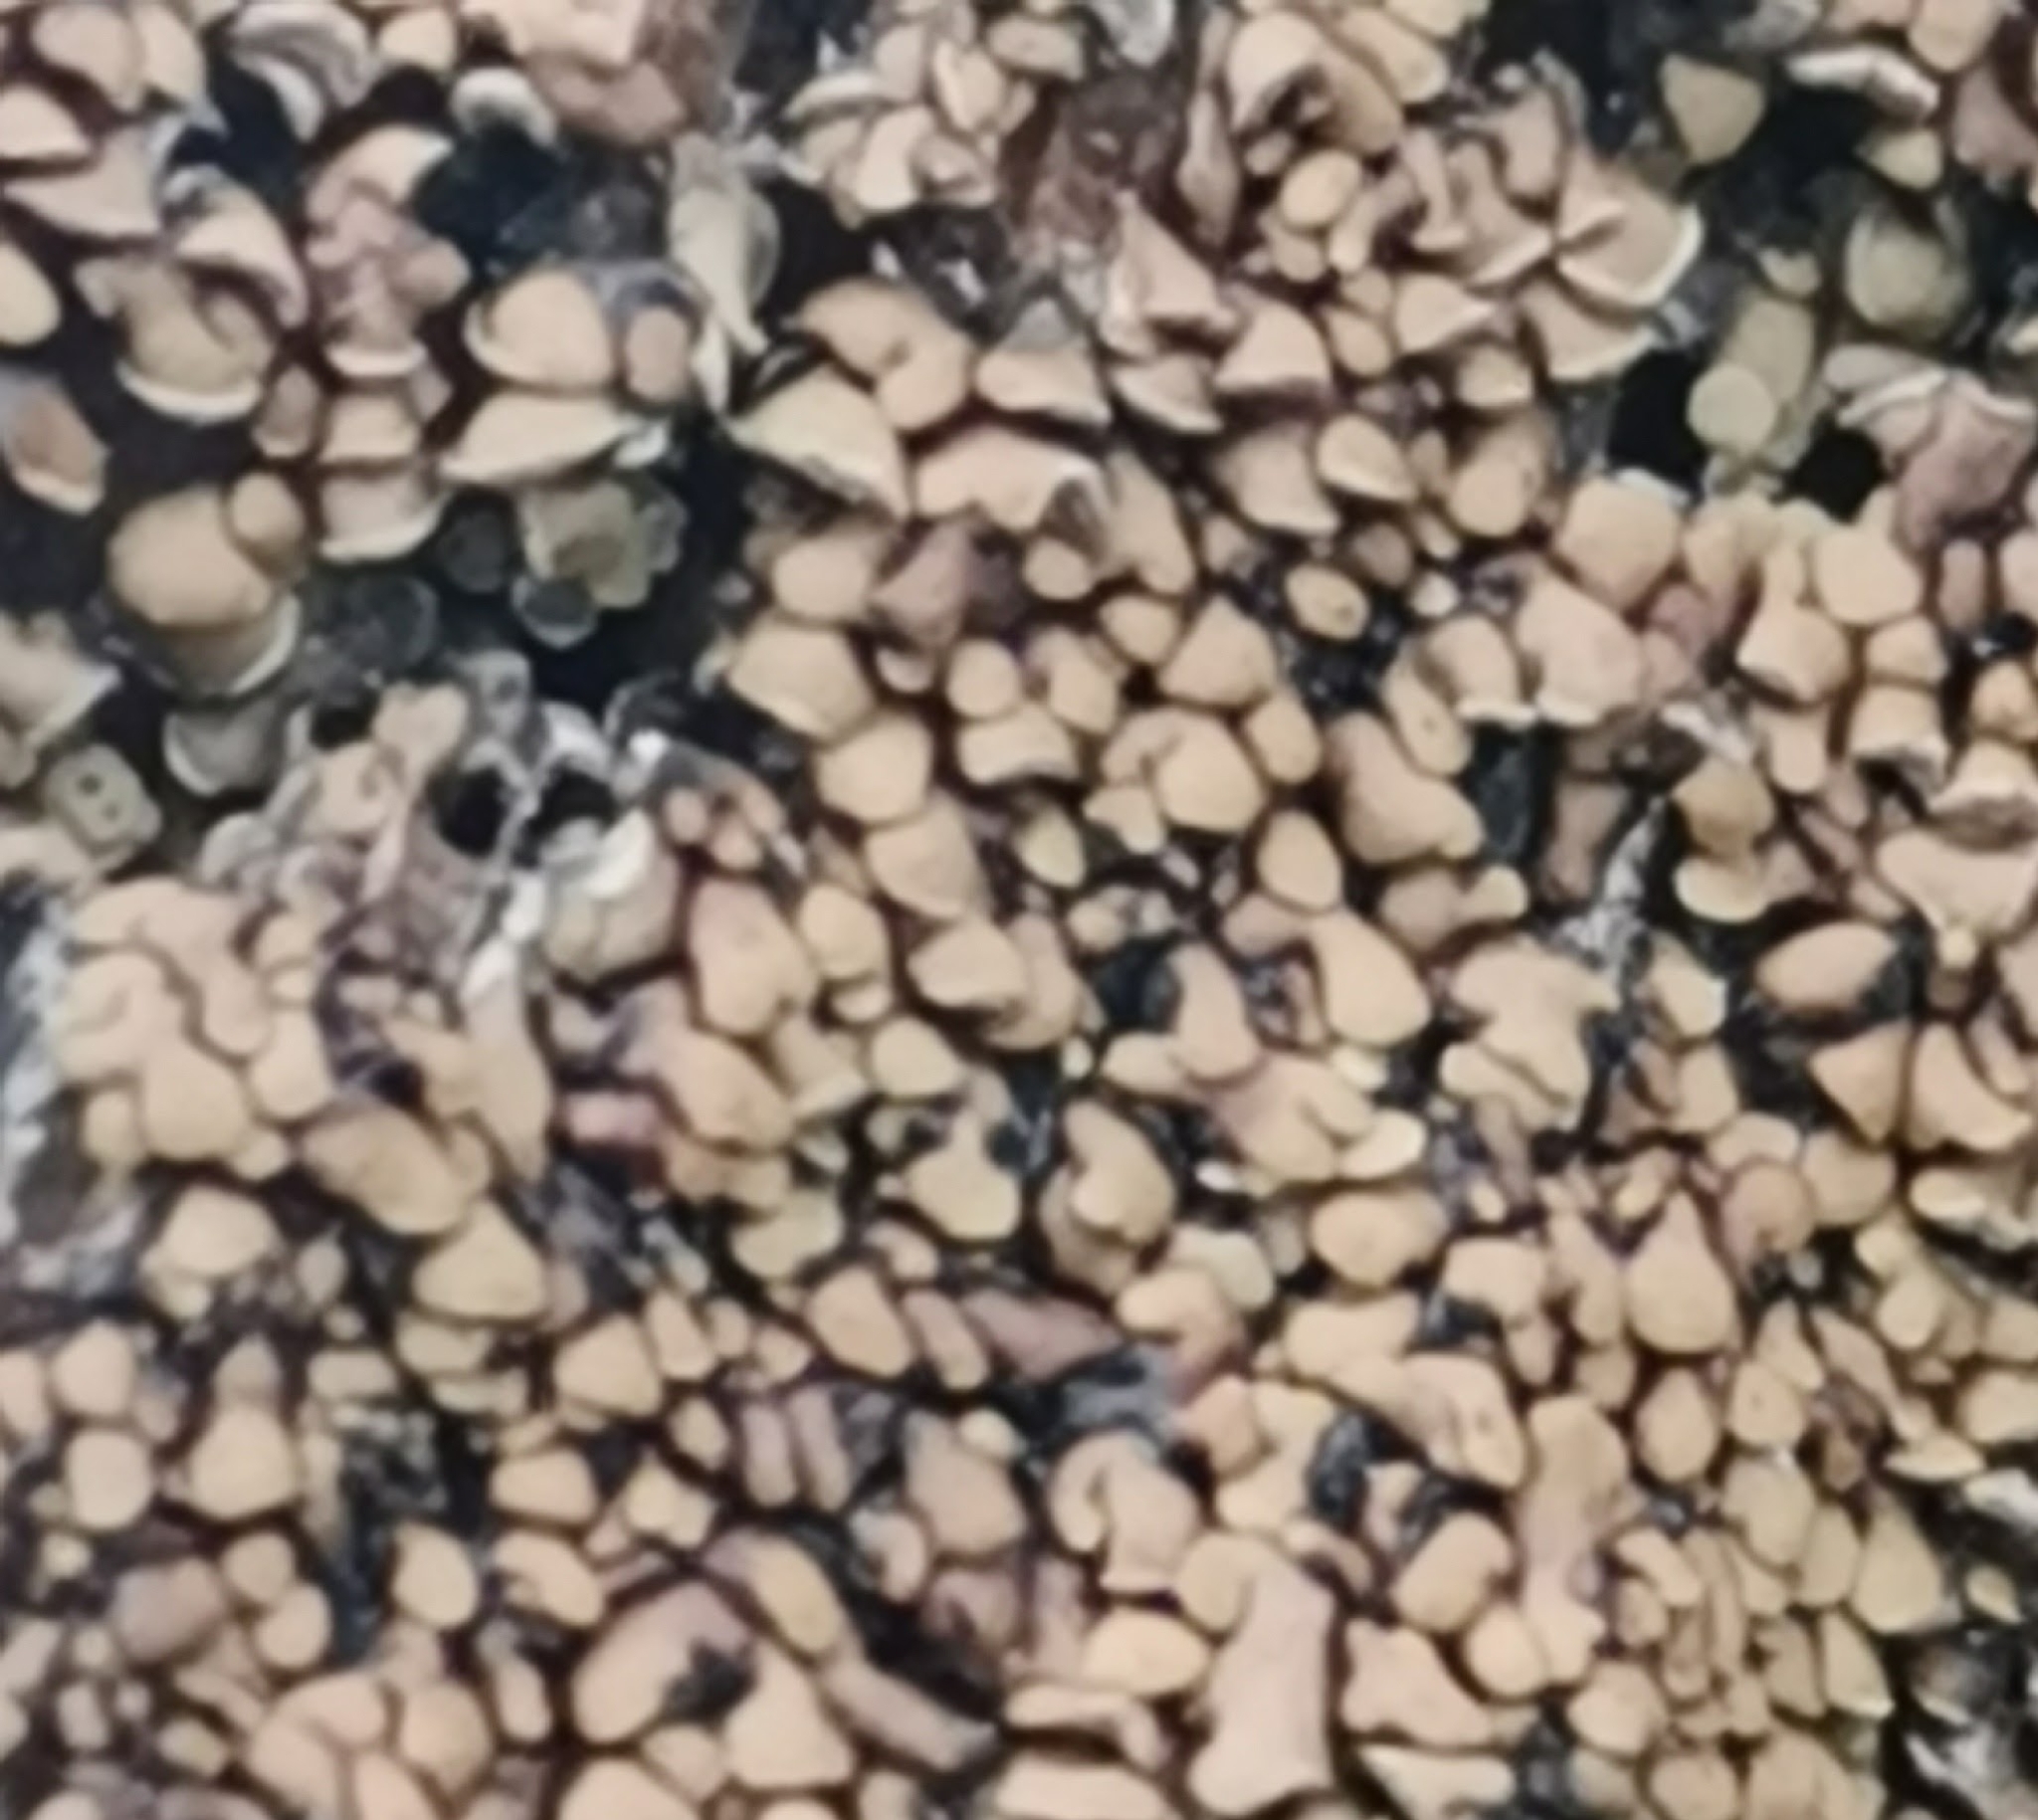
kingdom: Fungi
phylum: Ascomycota
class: Lecanoromycetes
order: Umbilicariales
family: Ophioparmaceae
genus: Hypocenomyce
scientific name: Hypocenomyce scalaris
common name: Common clam lichen
